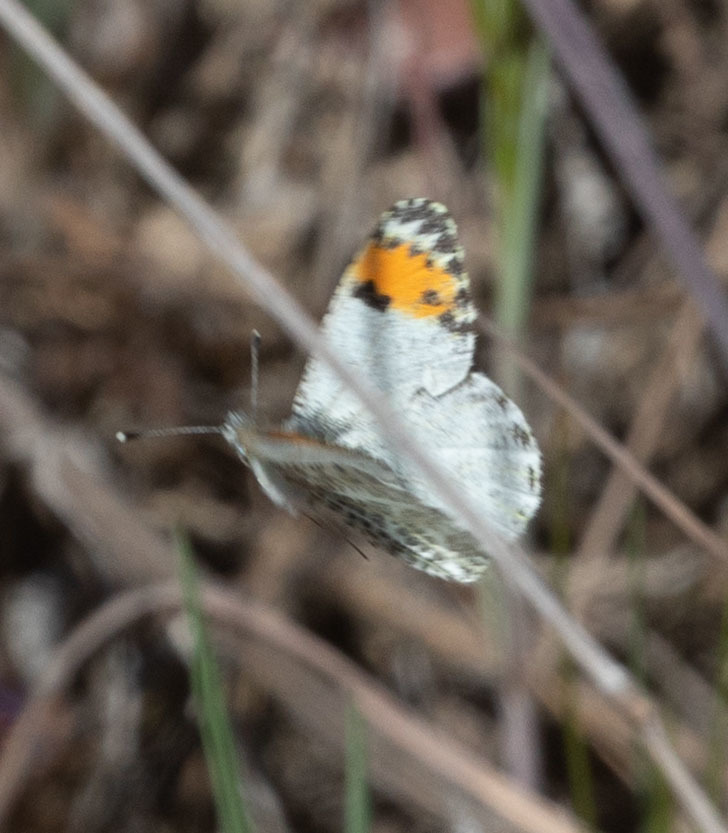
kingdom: Animalia
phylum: Arthropoda
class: Insecta
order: Lepidoptera
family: Pieridae
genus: Anthocharis
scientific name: Anthocharis sara
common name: Sara's orangetip
